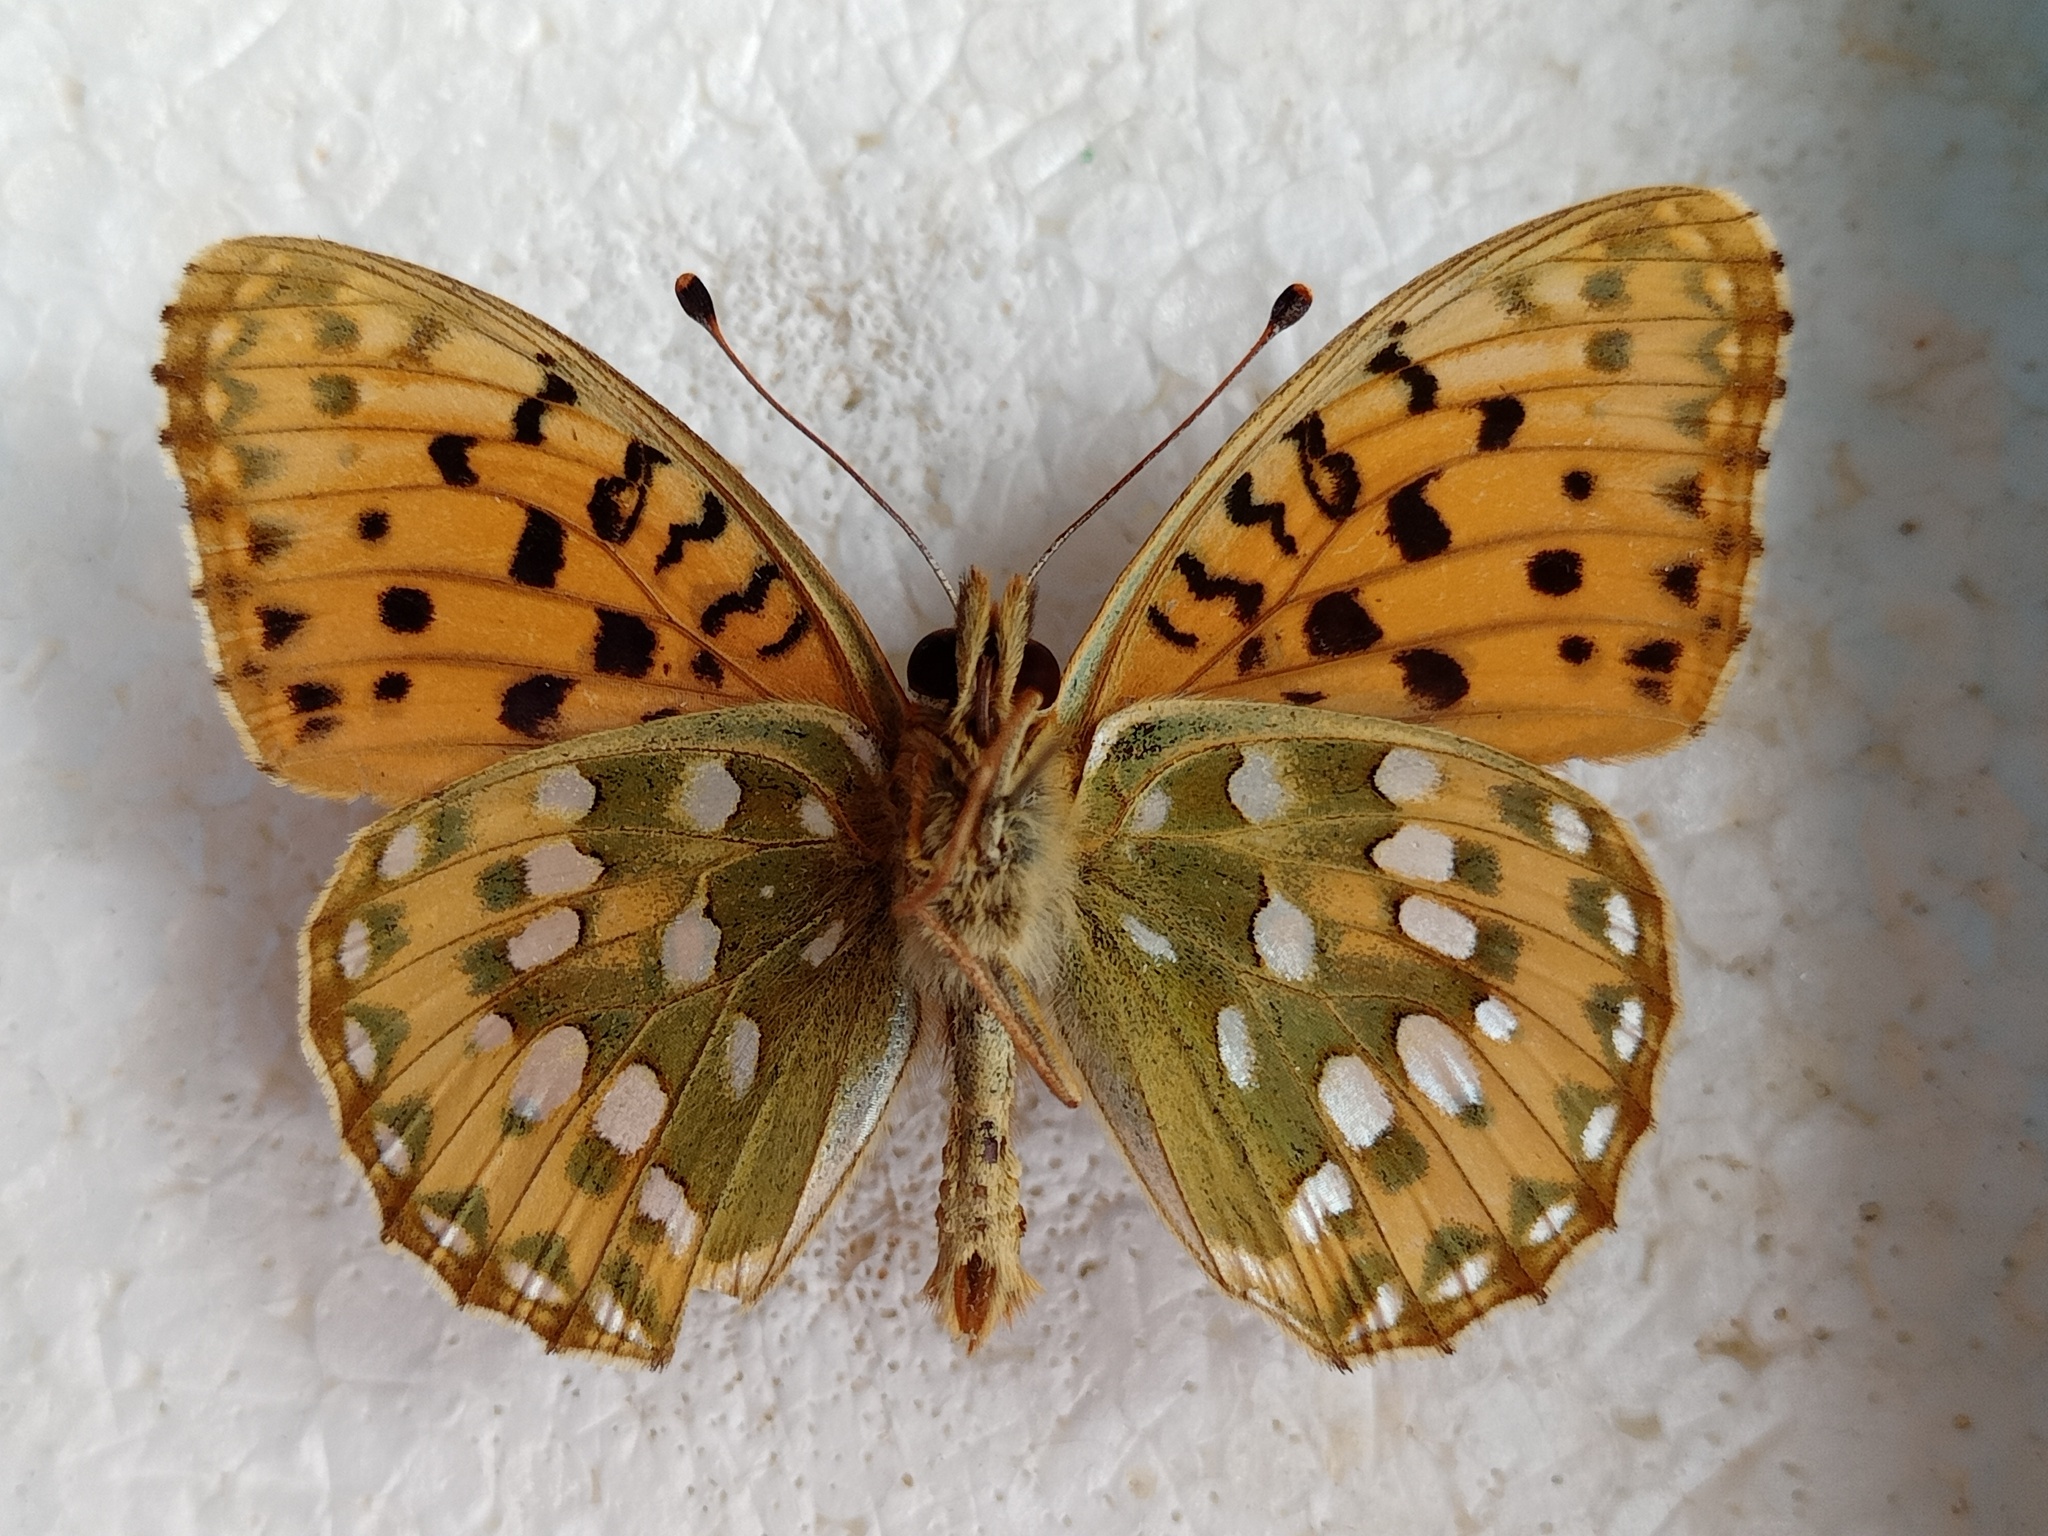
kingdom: Animalia
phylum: Arthropoda
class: Insecta
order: Lepidoptera
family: Nymphalidae
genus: Speyeria
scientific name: Speyeria aglaja
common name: Dark green fritillary
